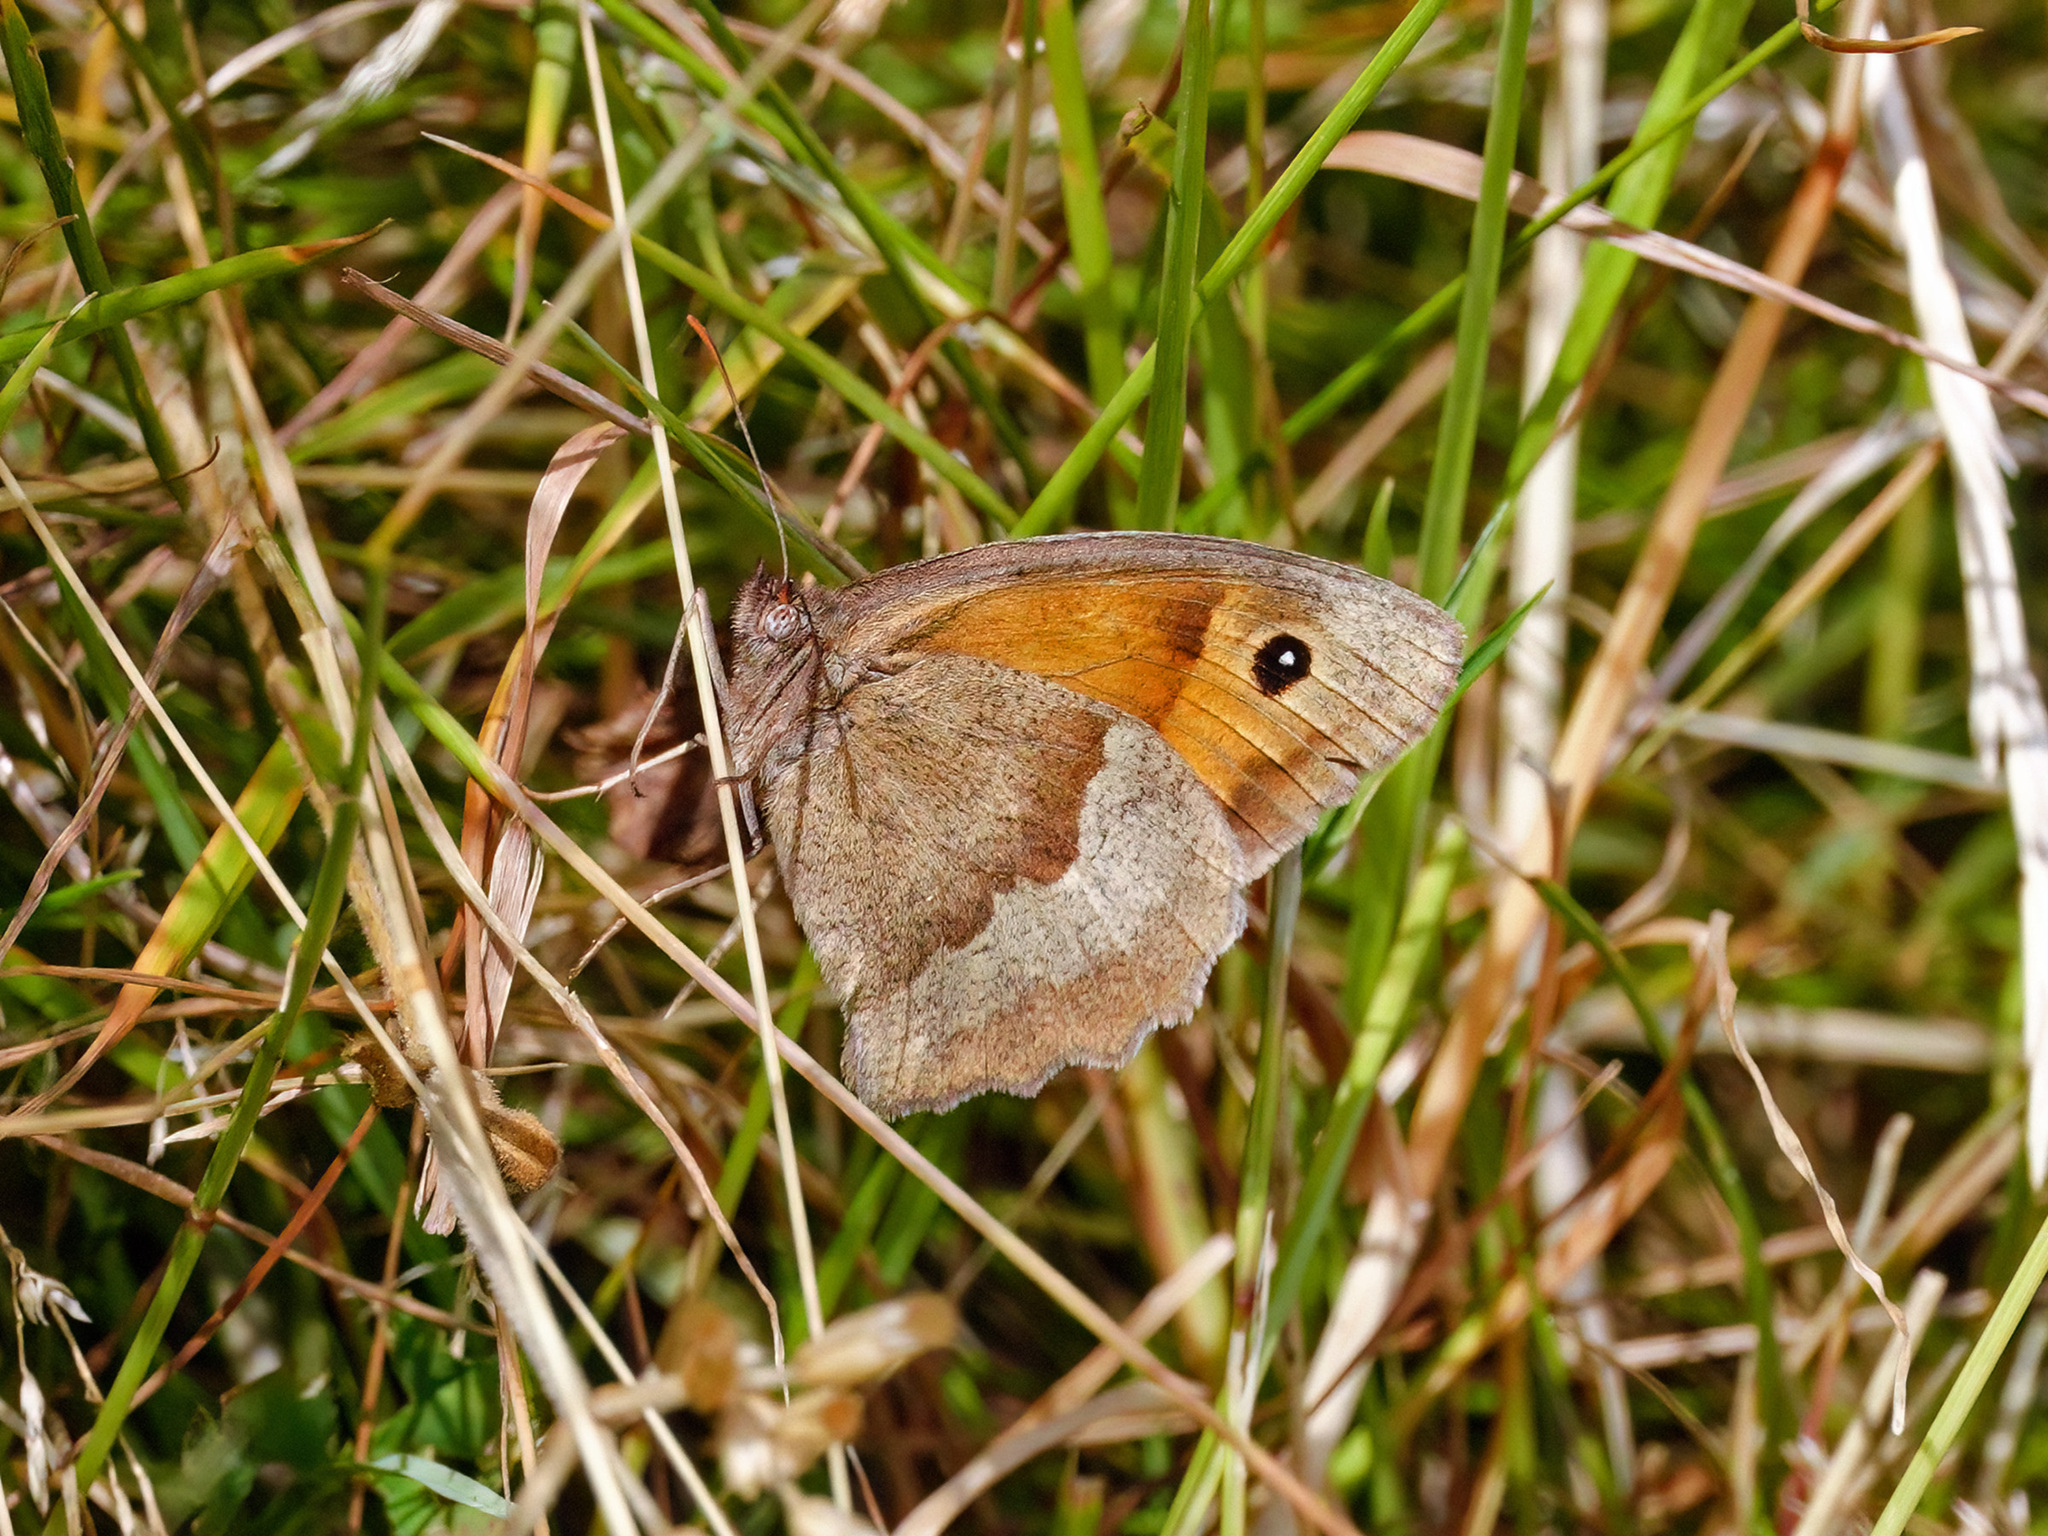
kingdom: Animalia
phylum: Arthropoda
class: Insecta
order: Lepidoptera
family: Nymphalidae
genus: Maniola
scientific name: Maniola jurtina
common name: Meadow brown
